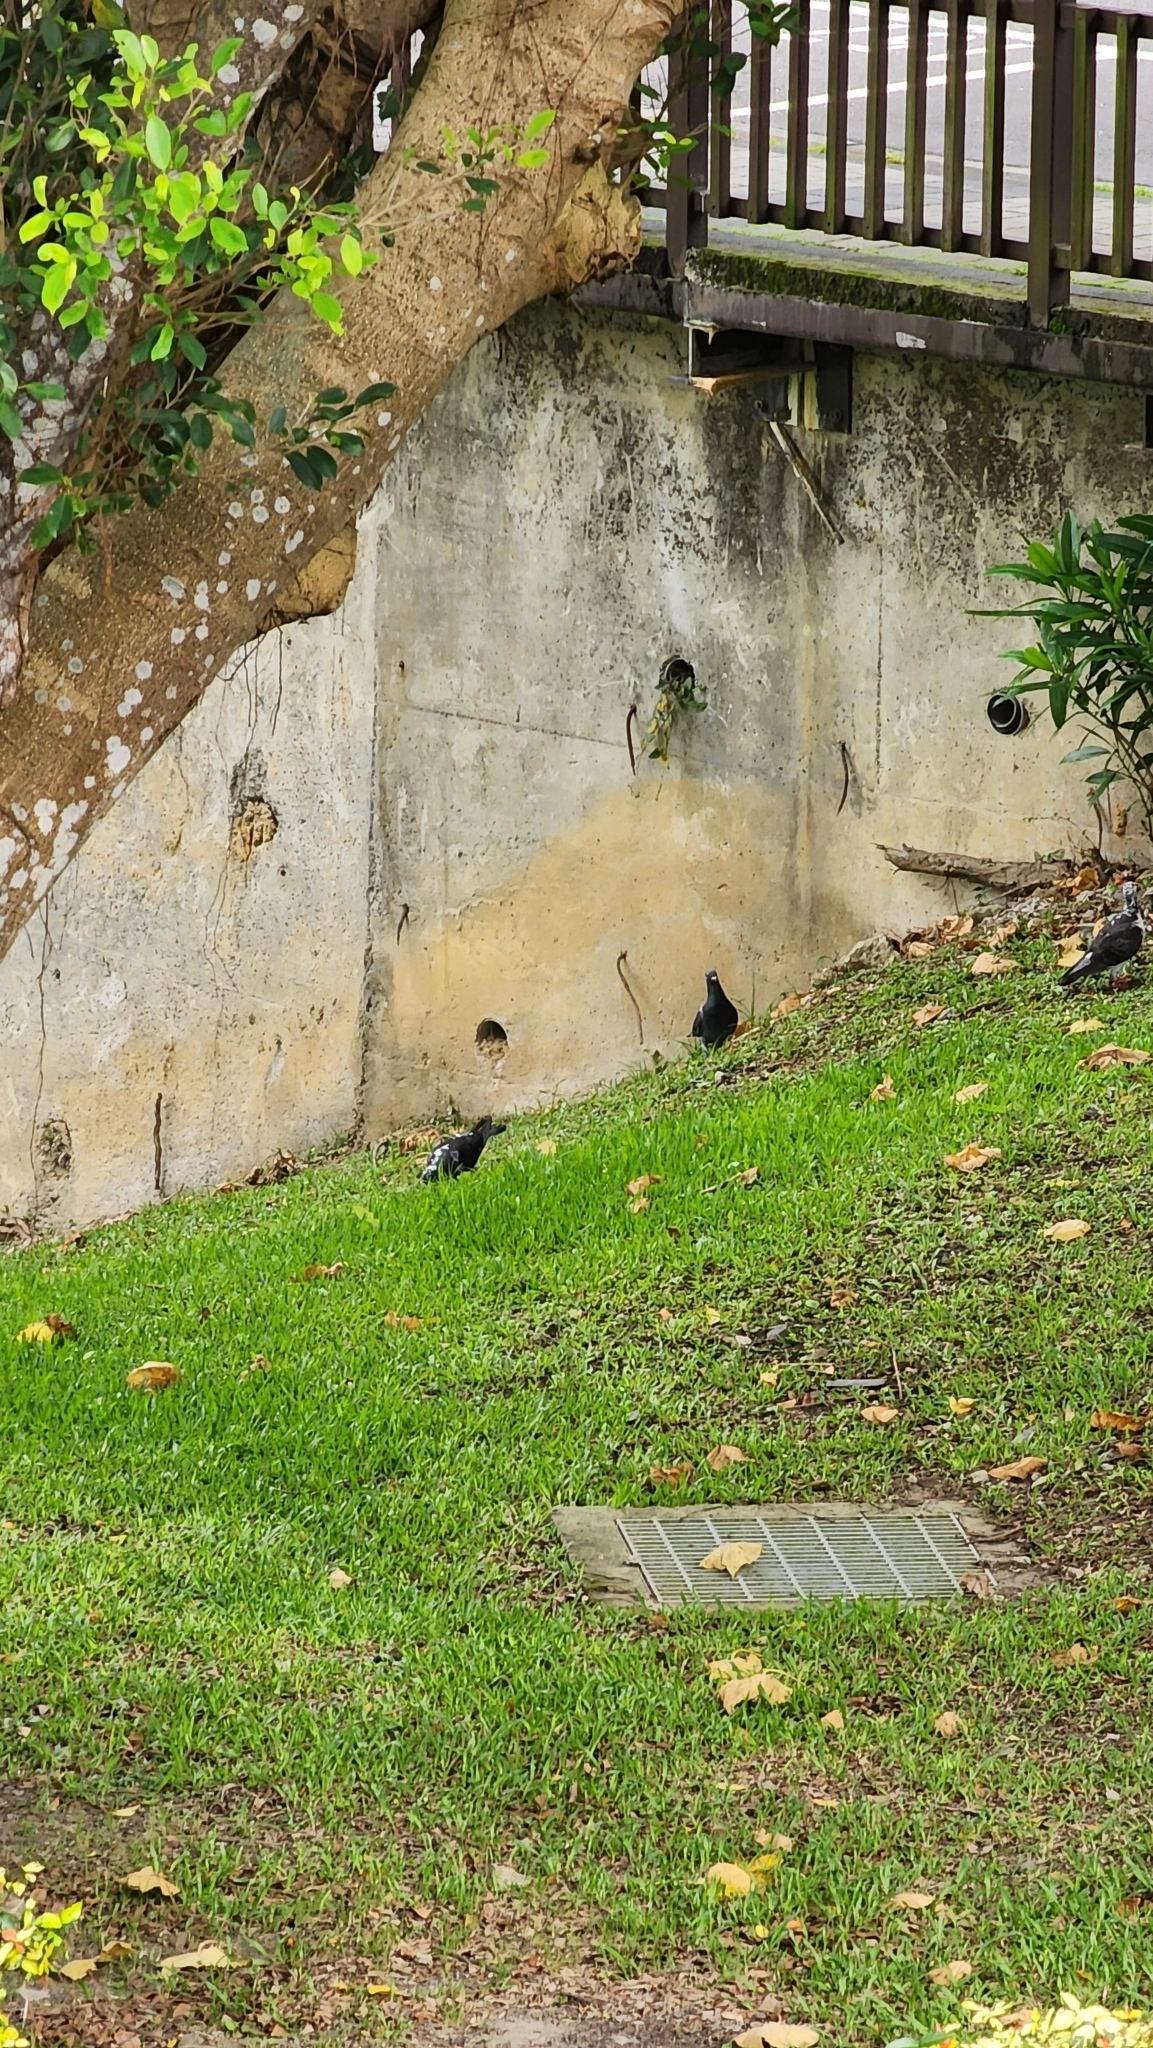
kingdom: Animalia
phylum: Chordata
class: Aves
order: Columbiformes
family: Columbidae
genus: Columba
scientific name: Columba livia
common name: Rock pigeon
